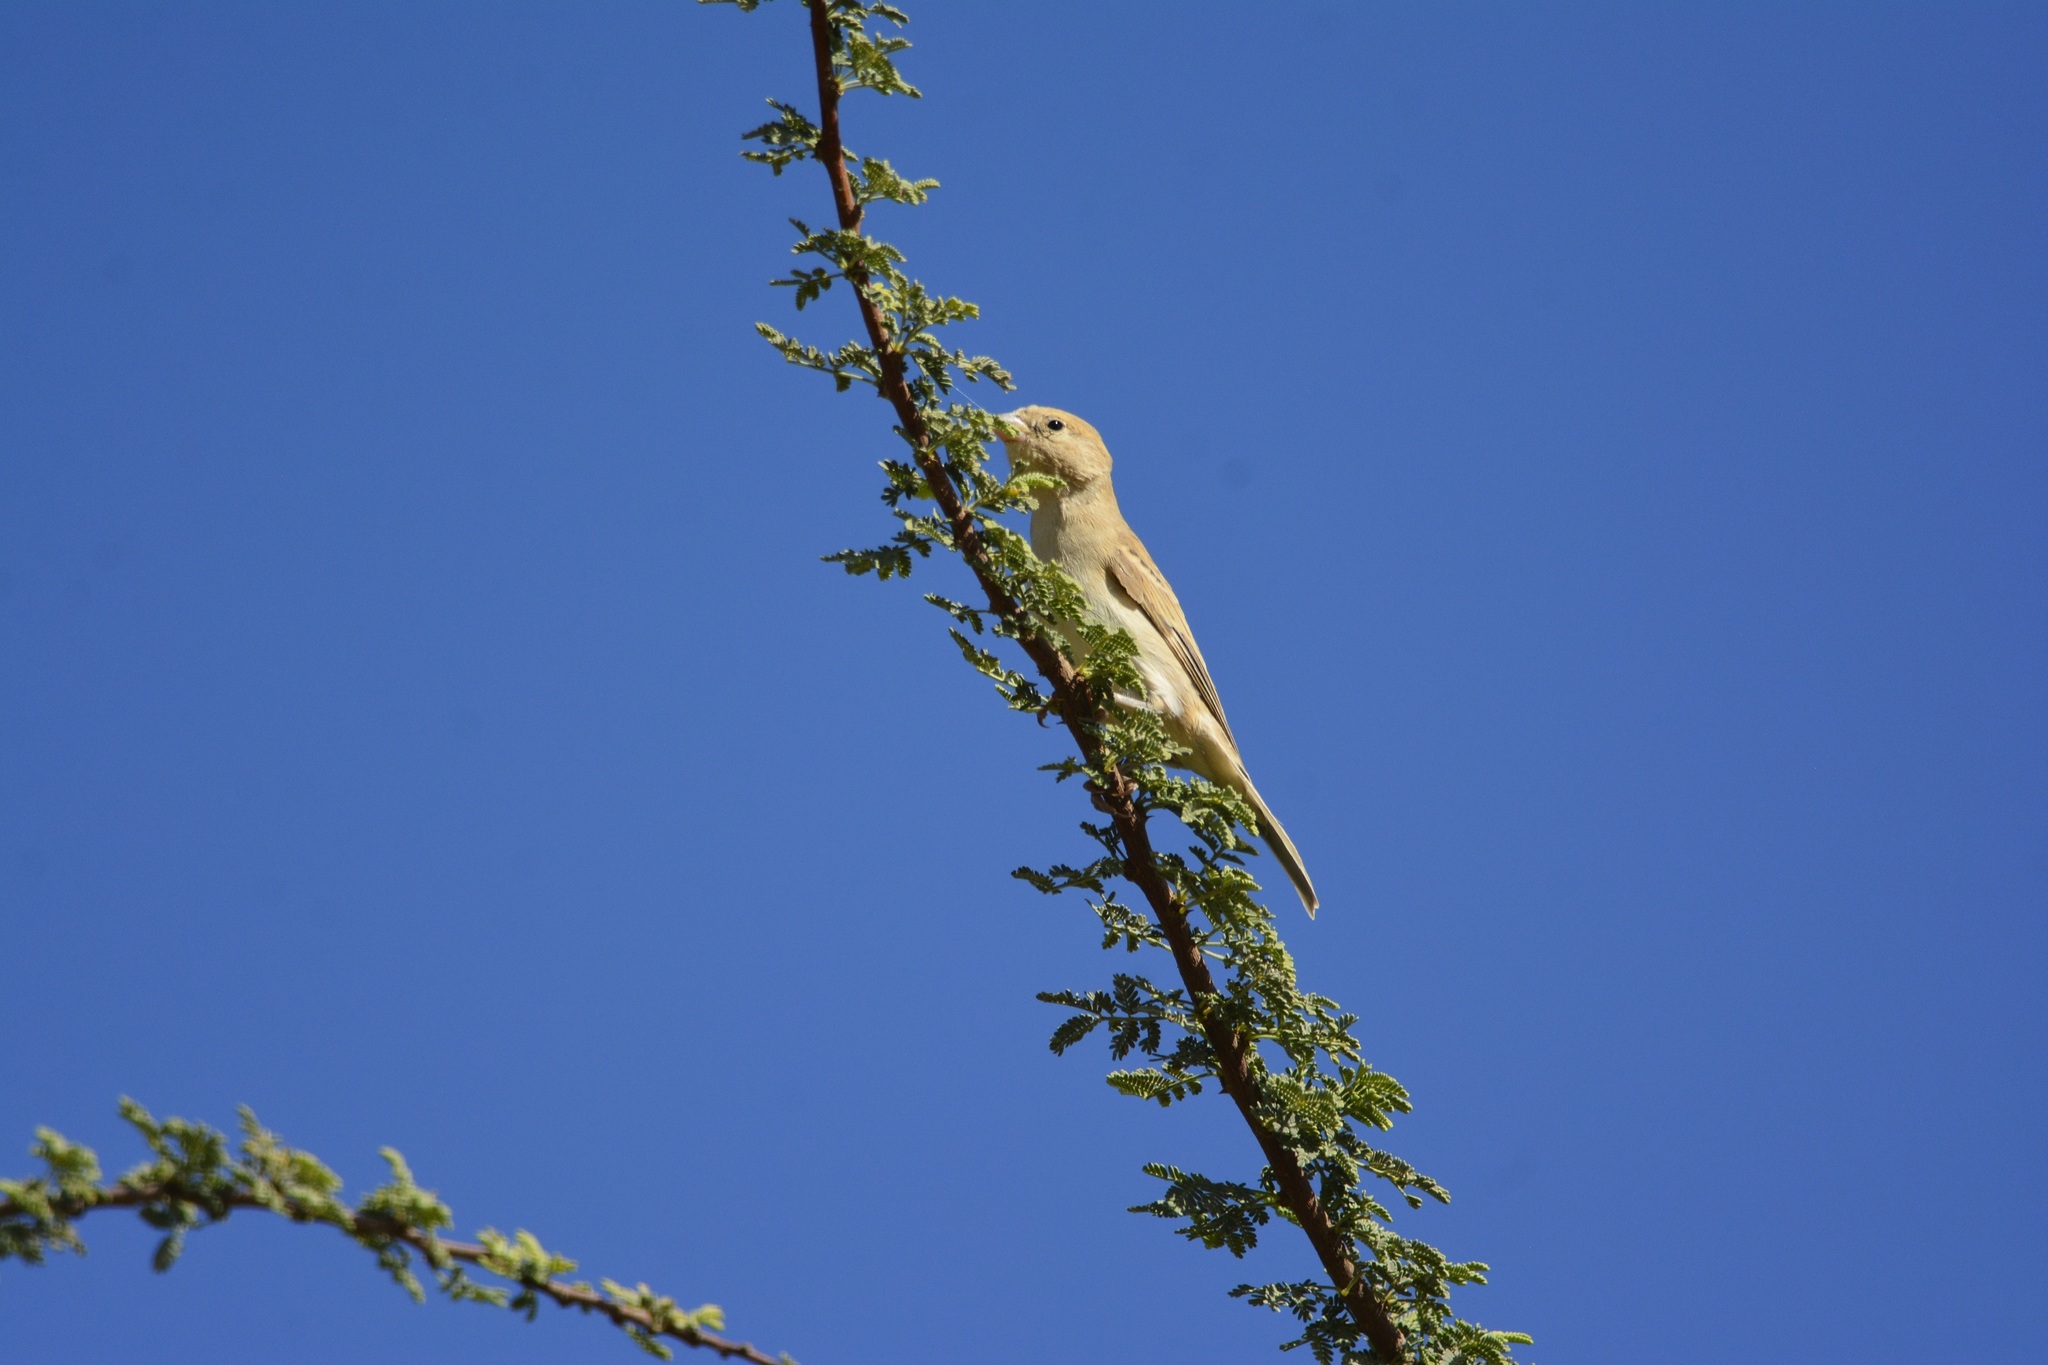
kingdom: Animalia
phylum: Chordata
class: Aves
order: Passeriformes
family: Passeridae
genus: Passer
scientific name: Passer luteus
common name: Sudan golden sparrow
